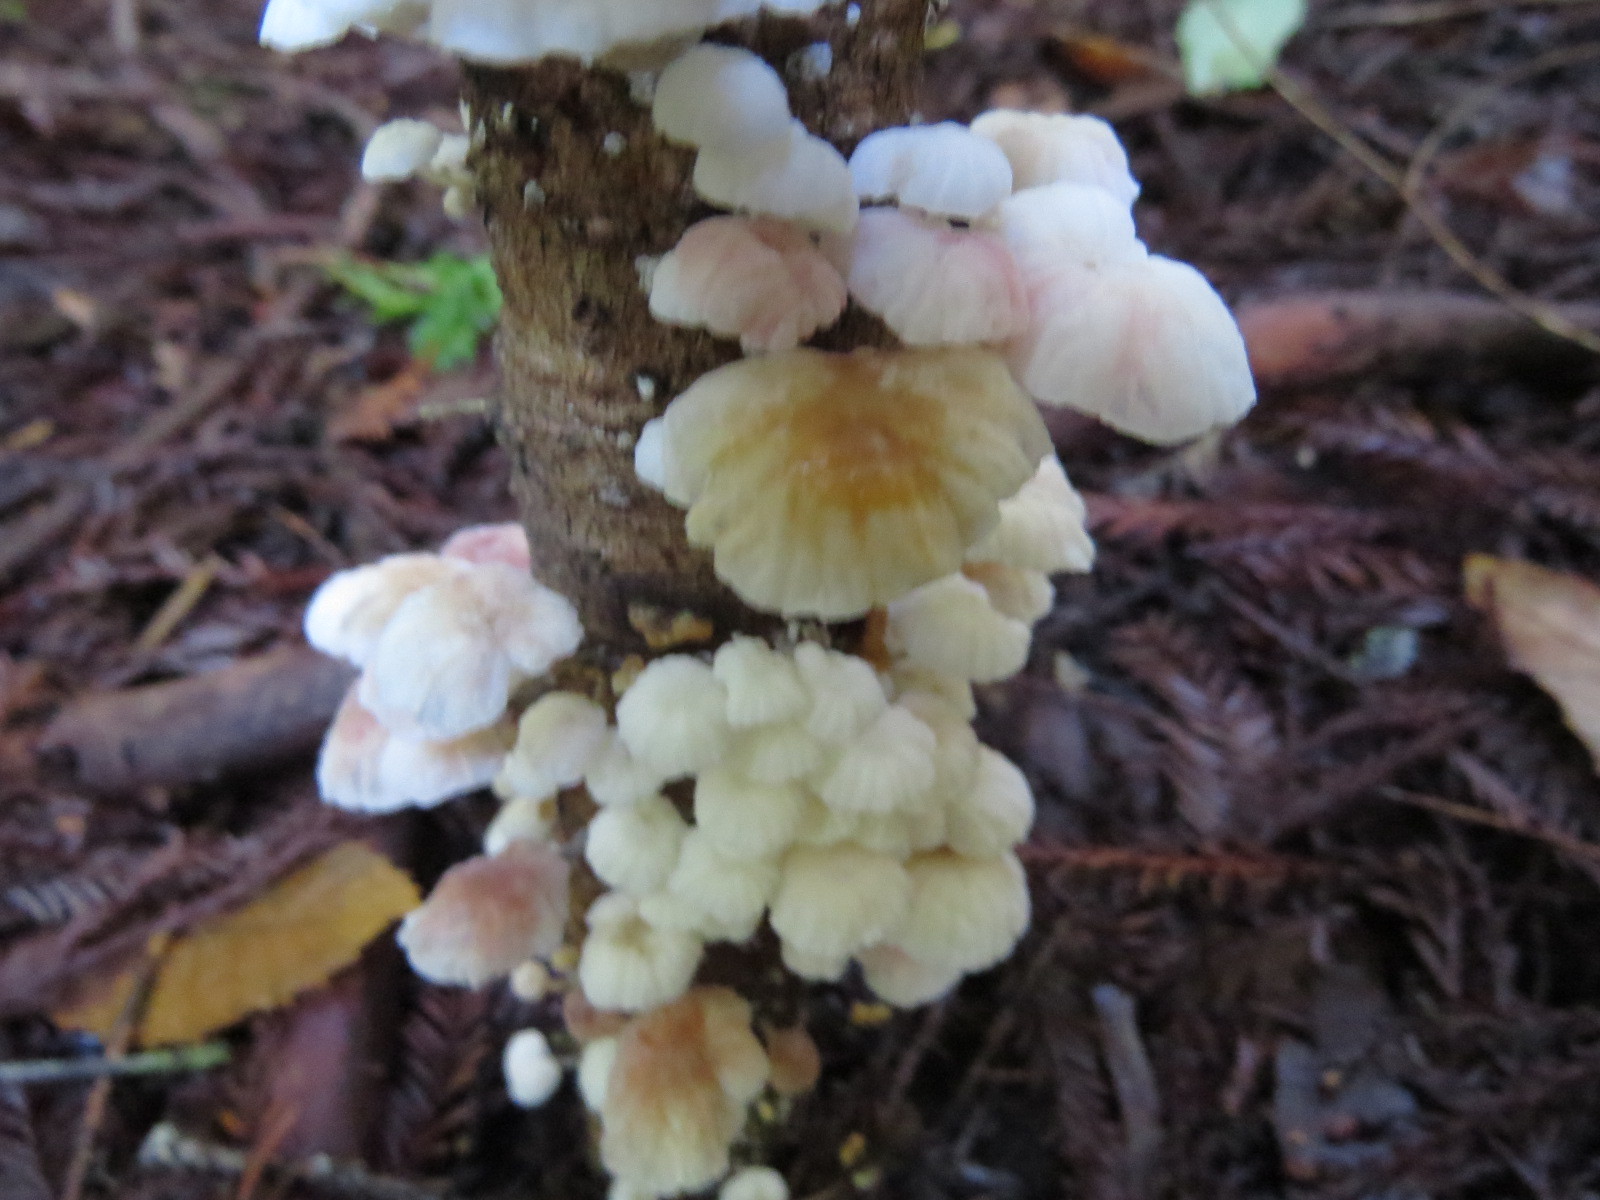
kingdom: Fungi
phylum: Basidiomycota
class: Agaricomycetes
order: Agaricales
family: Omphalotaceae
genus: Marasmiellus
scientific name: Marasmiellus candidus
